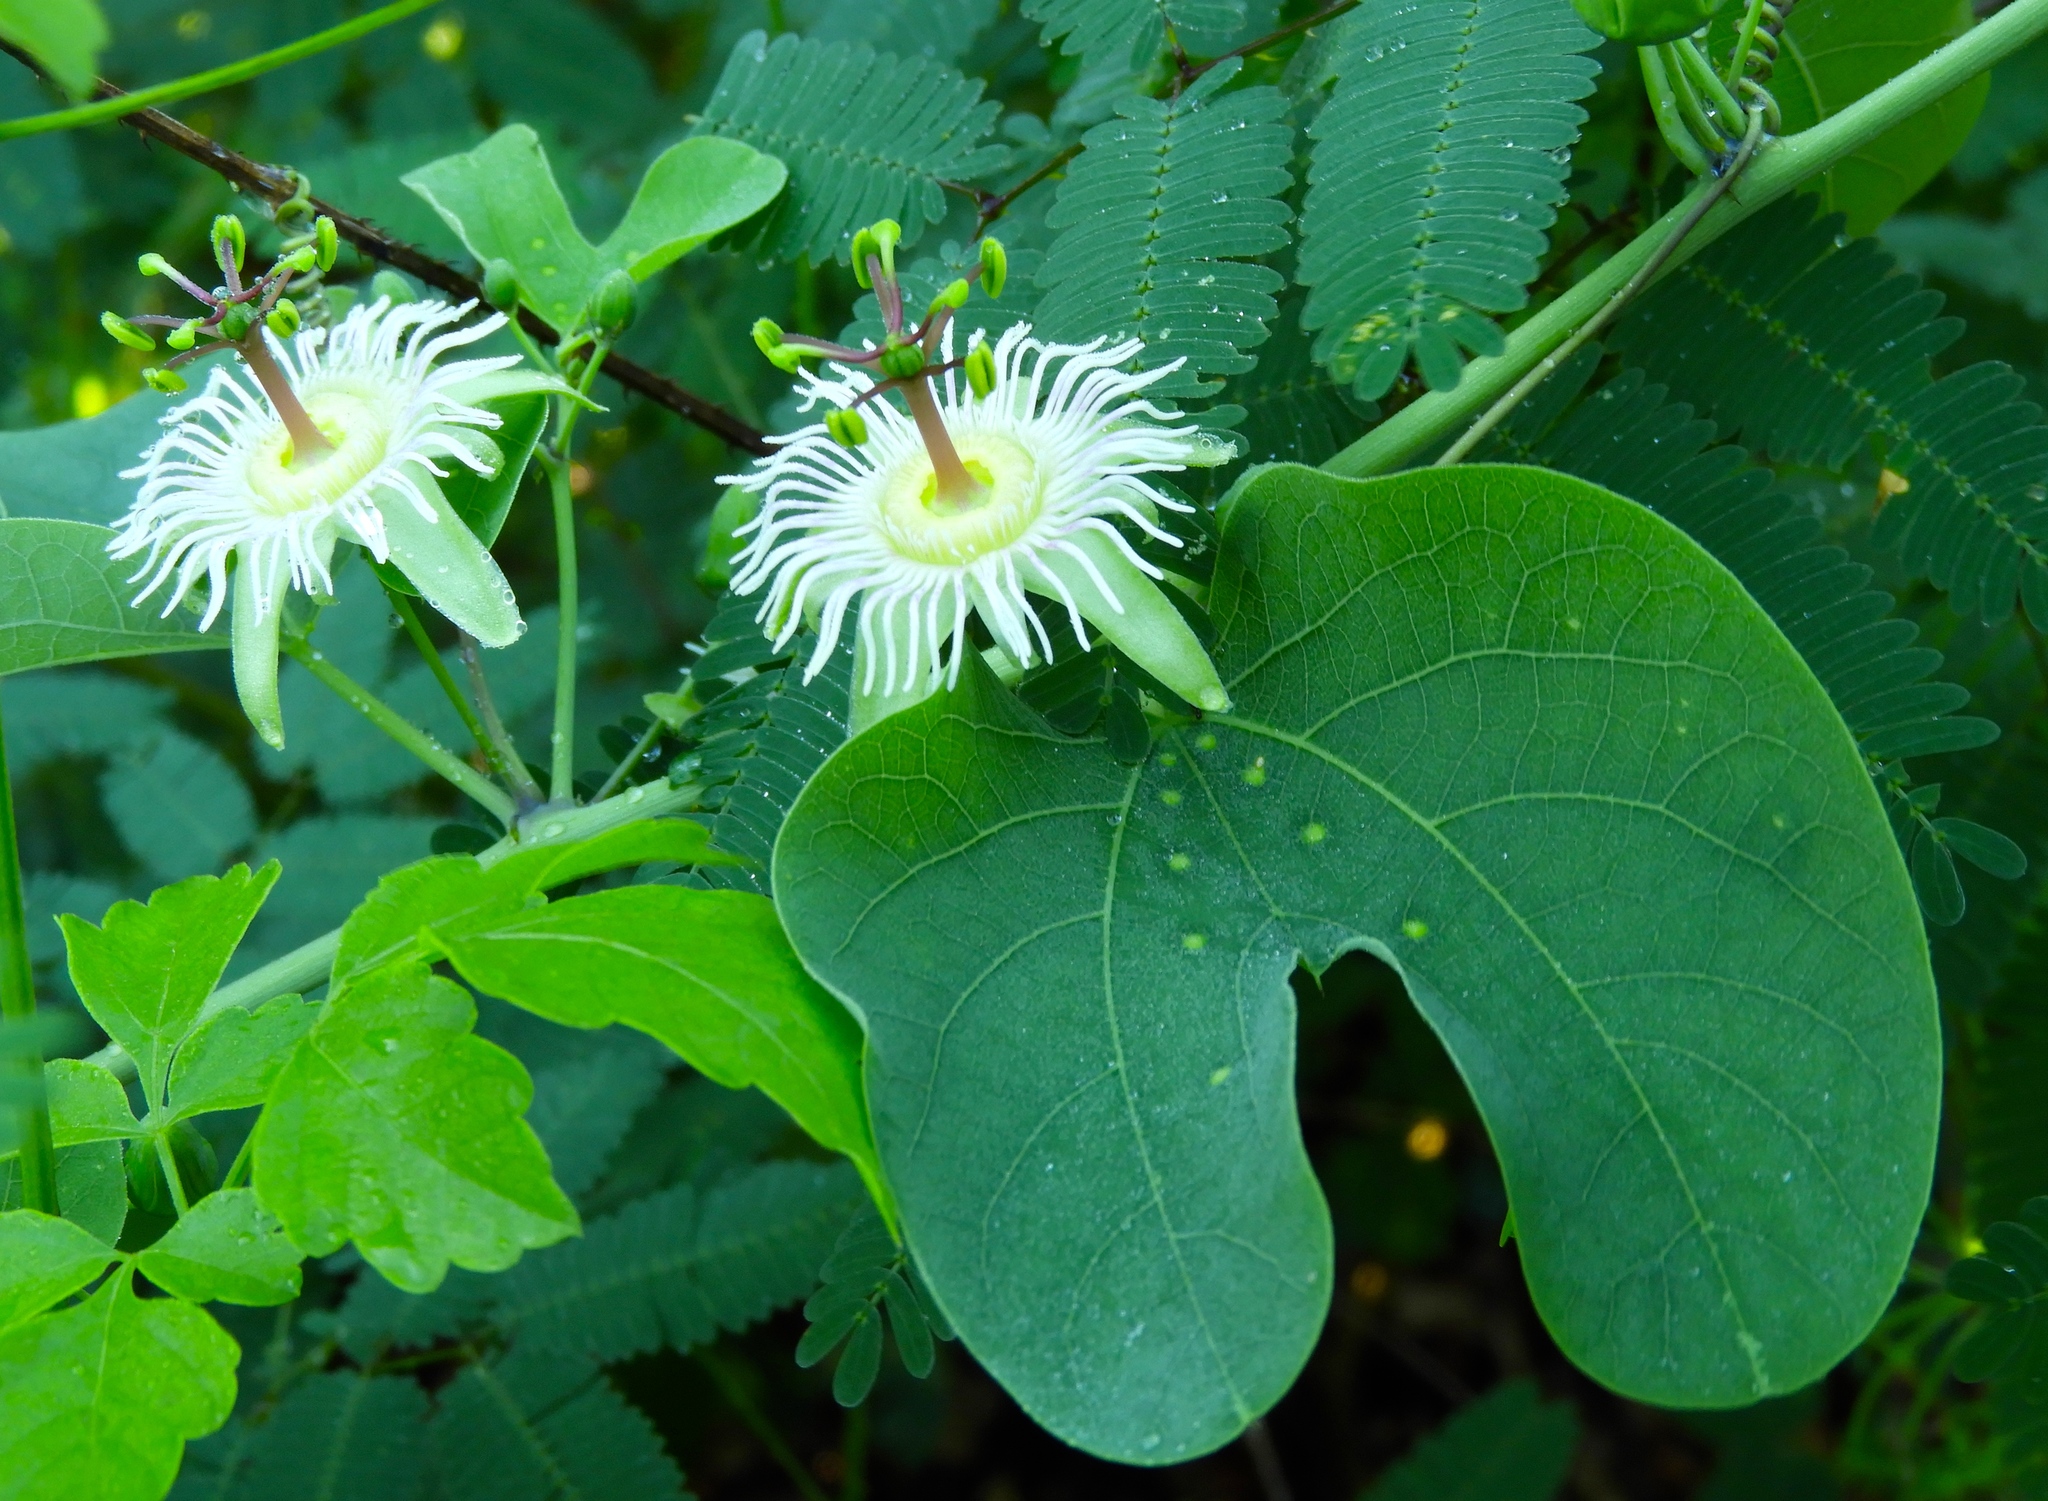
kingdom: Plantae
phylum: Tracheophyta
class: Magnoliopsida
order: Malpighiales
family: Passifloraceae
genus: Passiflora
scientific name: Passiflora mexicana
